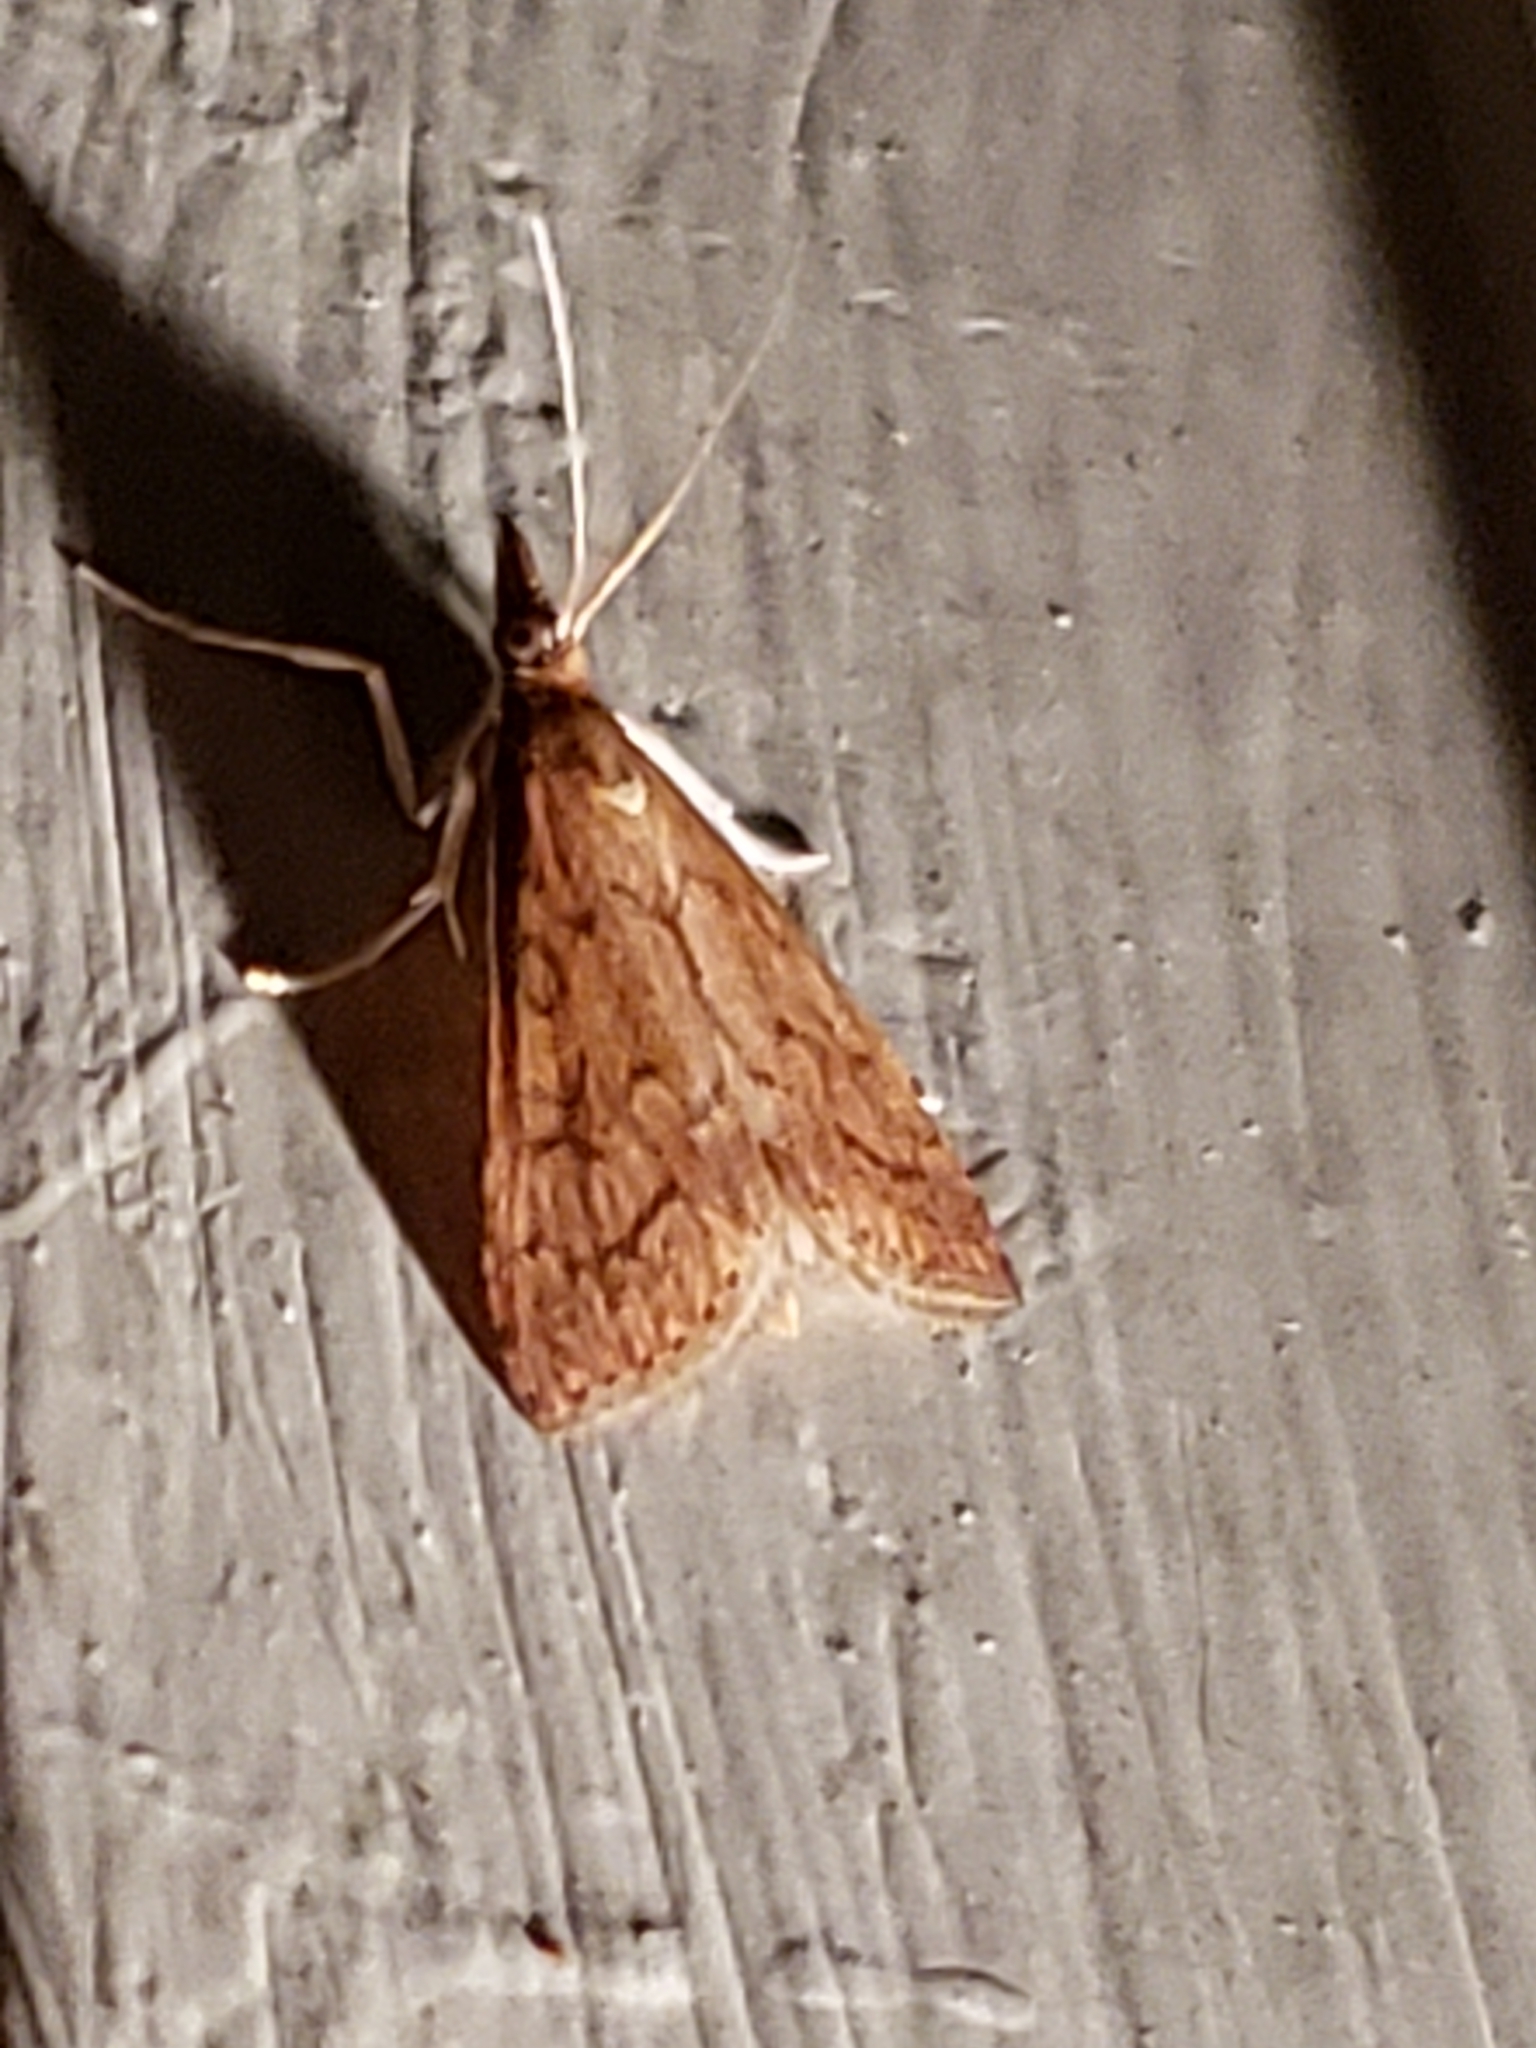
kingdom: Animalia
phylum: Arthropoda
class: Insecta
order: Lepidoptera
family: Crambidae
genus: Udea
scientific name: Udea rubigalis
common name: Celery leaftier moth
